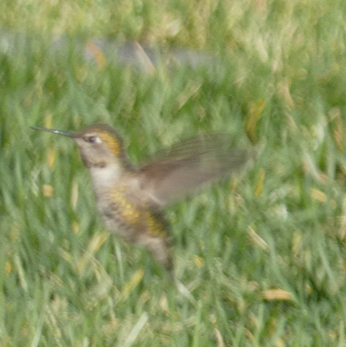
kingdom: Animalia
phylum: Chordata
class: Aves
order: Apodiformes
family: Trochilidae
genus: Calypte
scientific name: Calypte anna
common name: Anna's hummingbird
